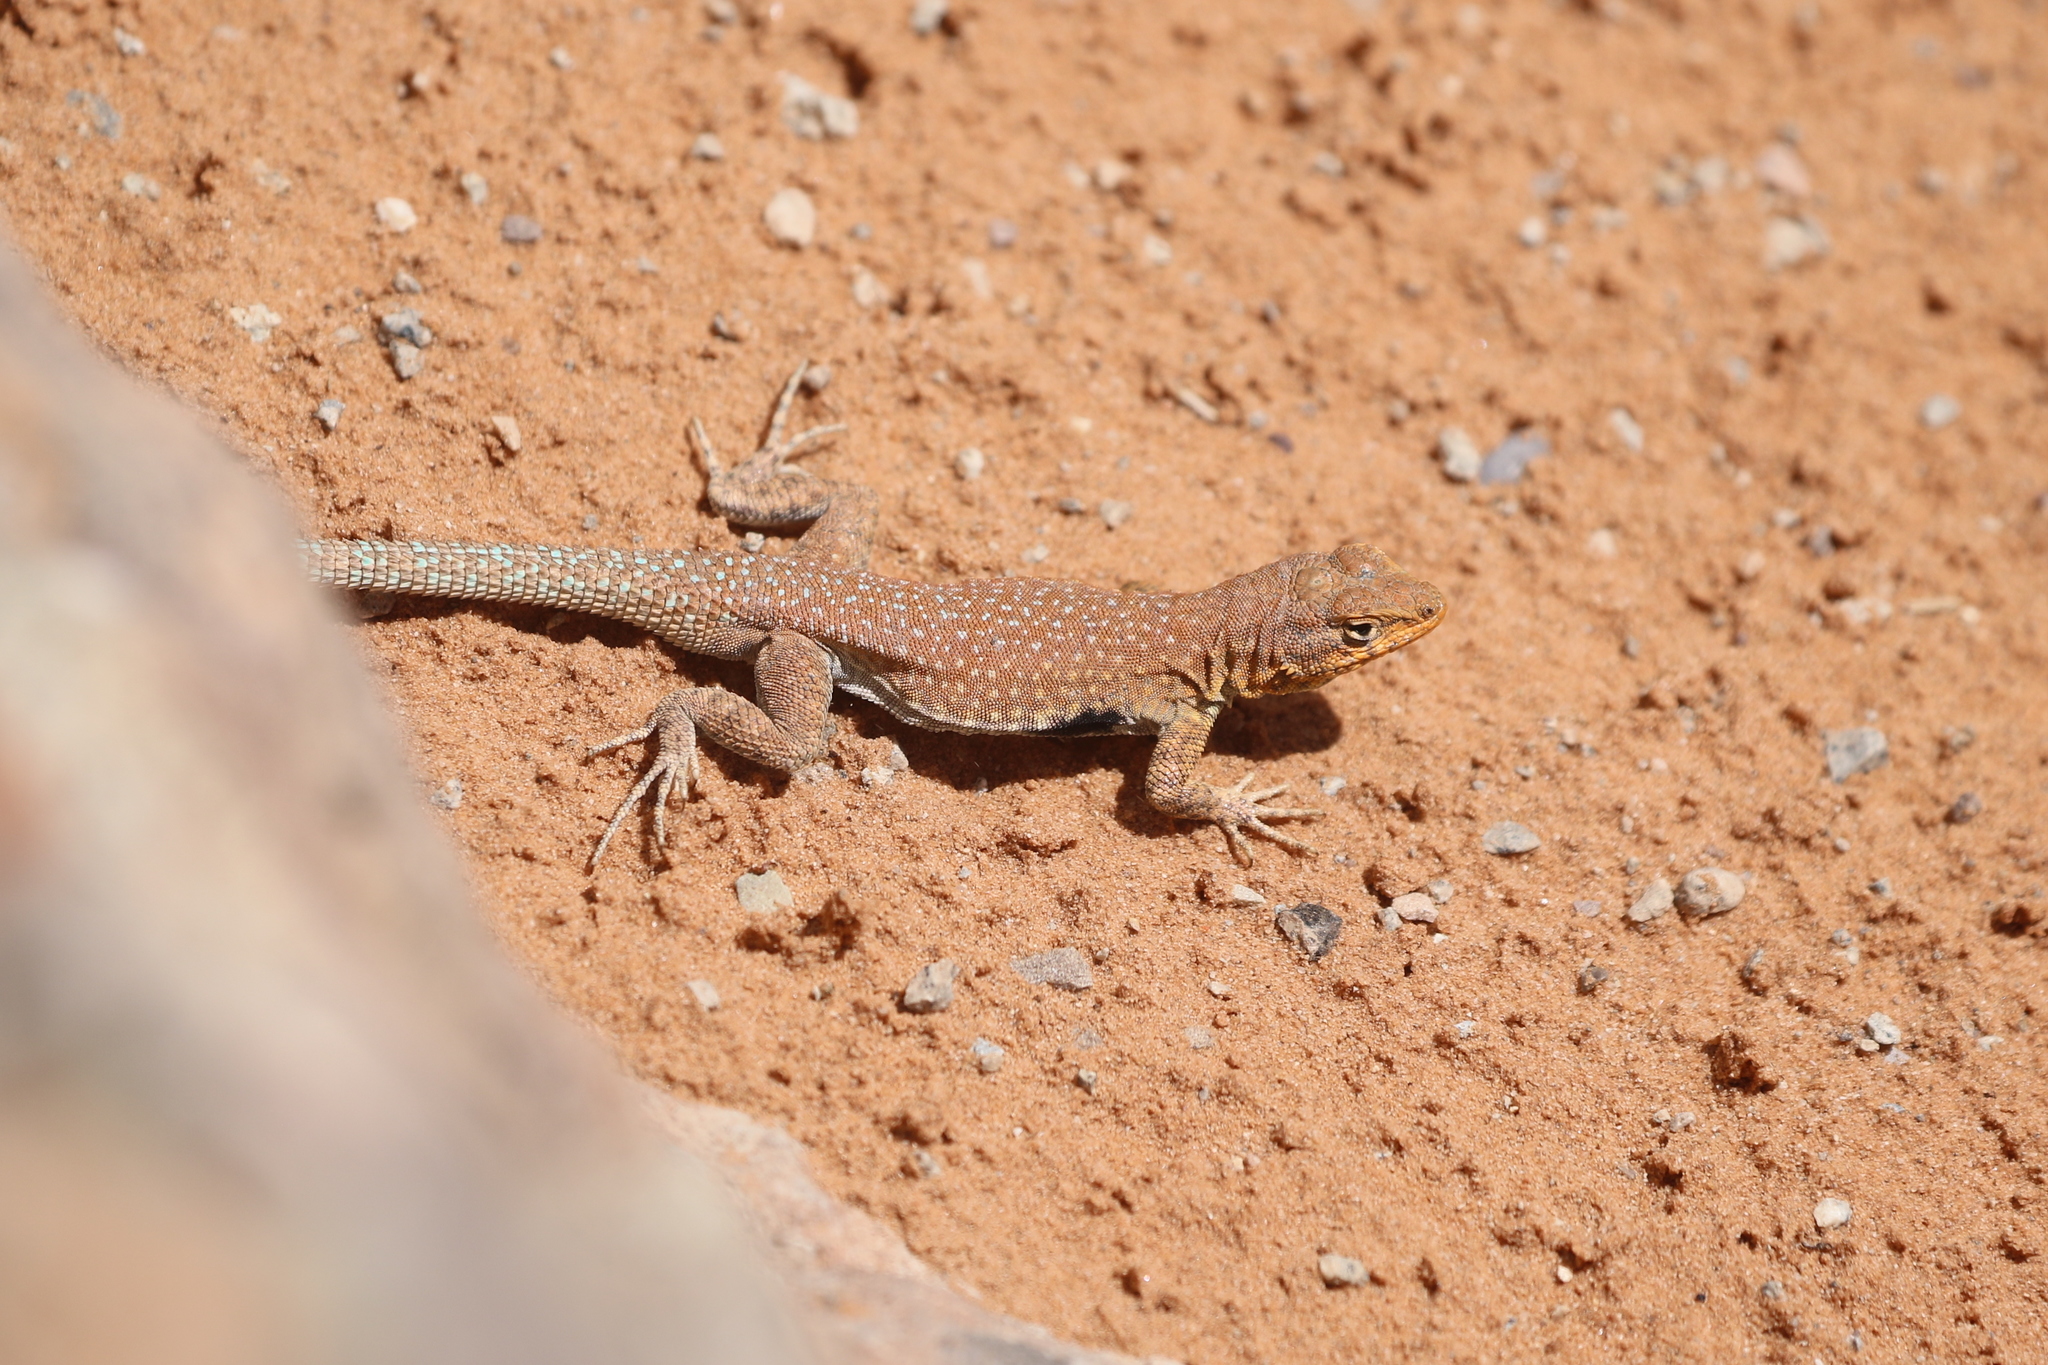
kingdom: Animalia
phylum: Chordata
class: Squamata
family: Phrynosomatidae
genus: Uta
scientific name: Uta stansburiana
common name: Side-blotched lizard
